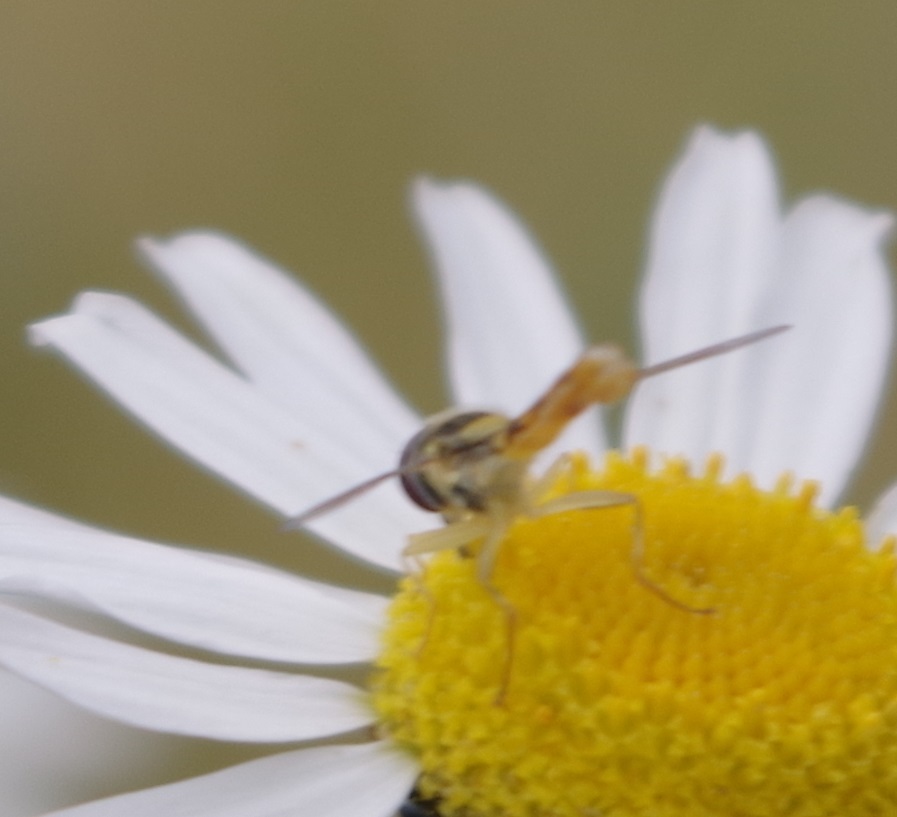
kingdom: Animalia
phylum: Arthropoda
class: Insecta
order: Diptera
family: Syrphidae
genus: Sphaerophoria
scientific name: Sphaerophoria scripta
